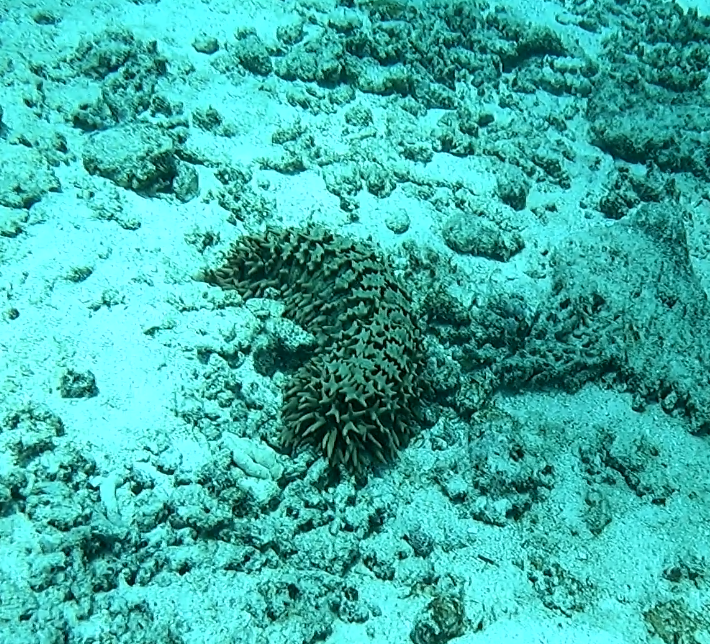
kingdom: Animalia
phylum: Echinodermata
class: Holothuroidea
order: Synallactida
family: Stichopodidae
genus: Thelenota
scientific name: Thelenota ananas
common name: Prickly redfish
